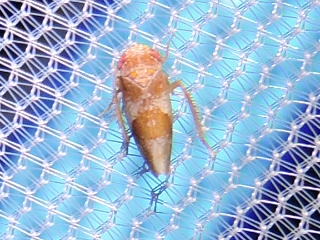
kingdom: Animalia
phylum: Arthropoda
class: Insecta
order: Hemiptera
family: Cicadellidae
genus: Norvellina
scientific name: Norvellina helenae
